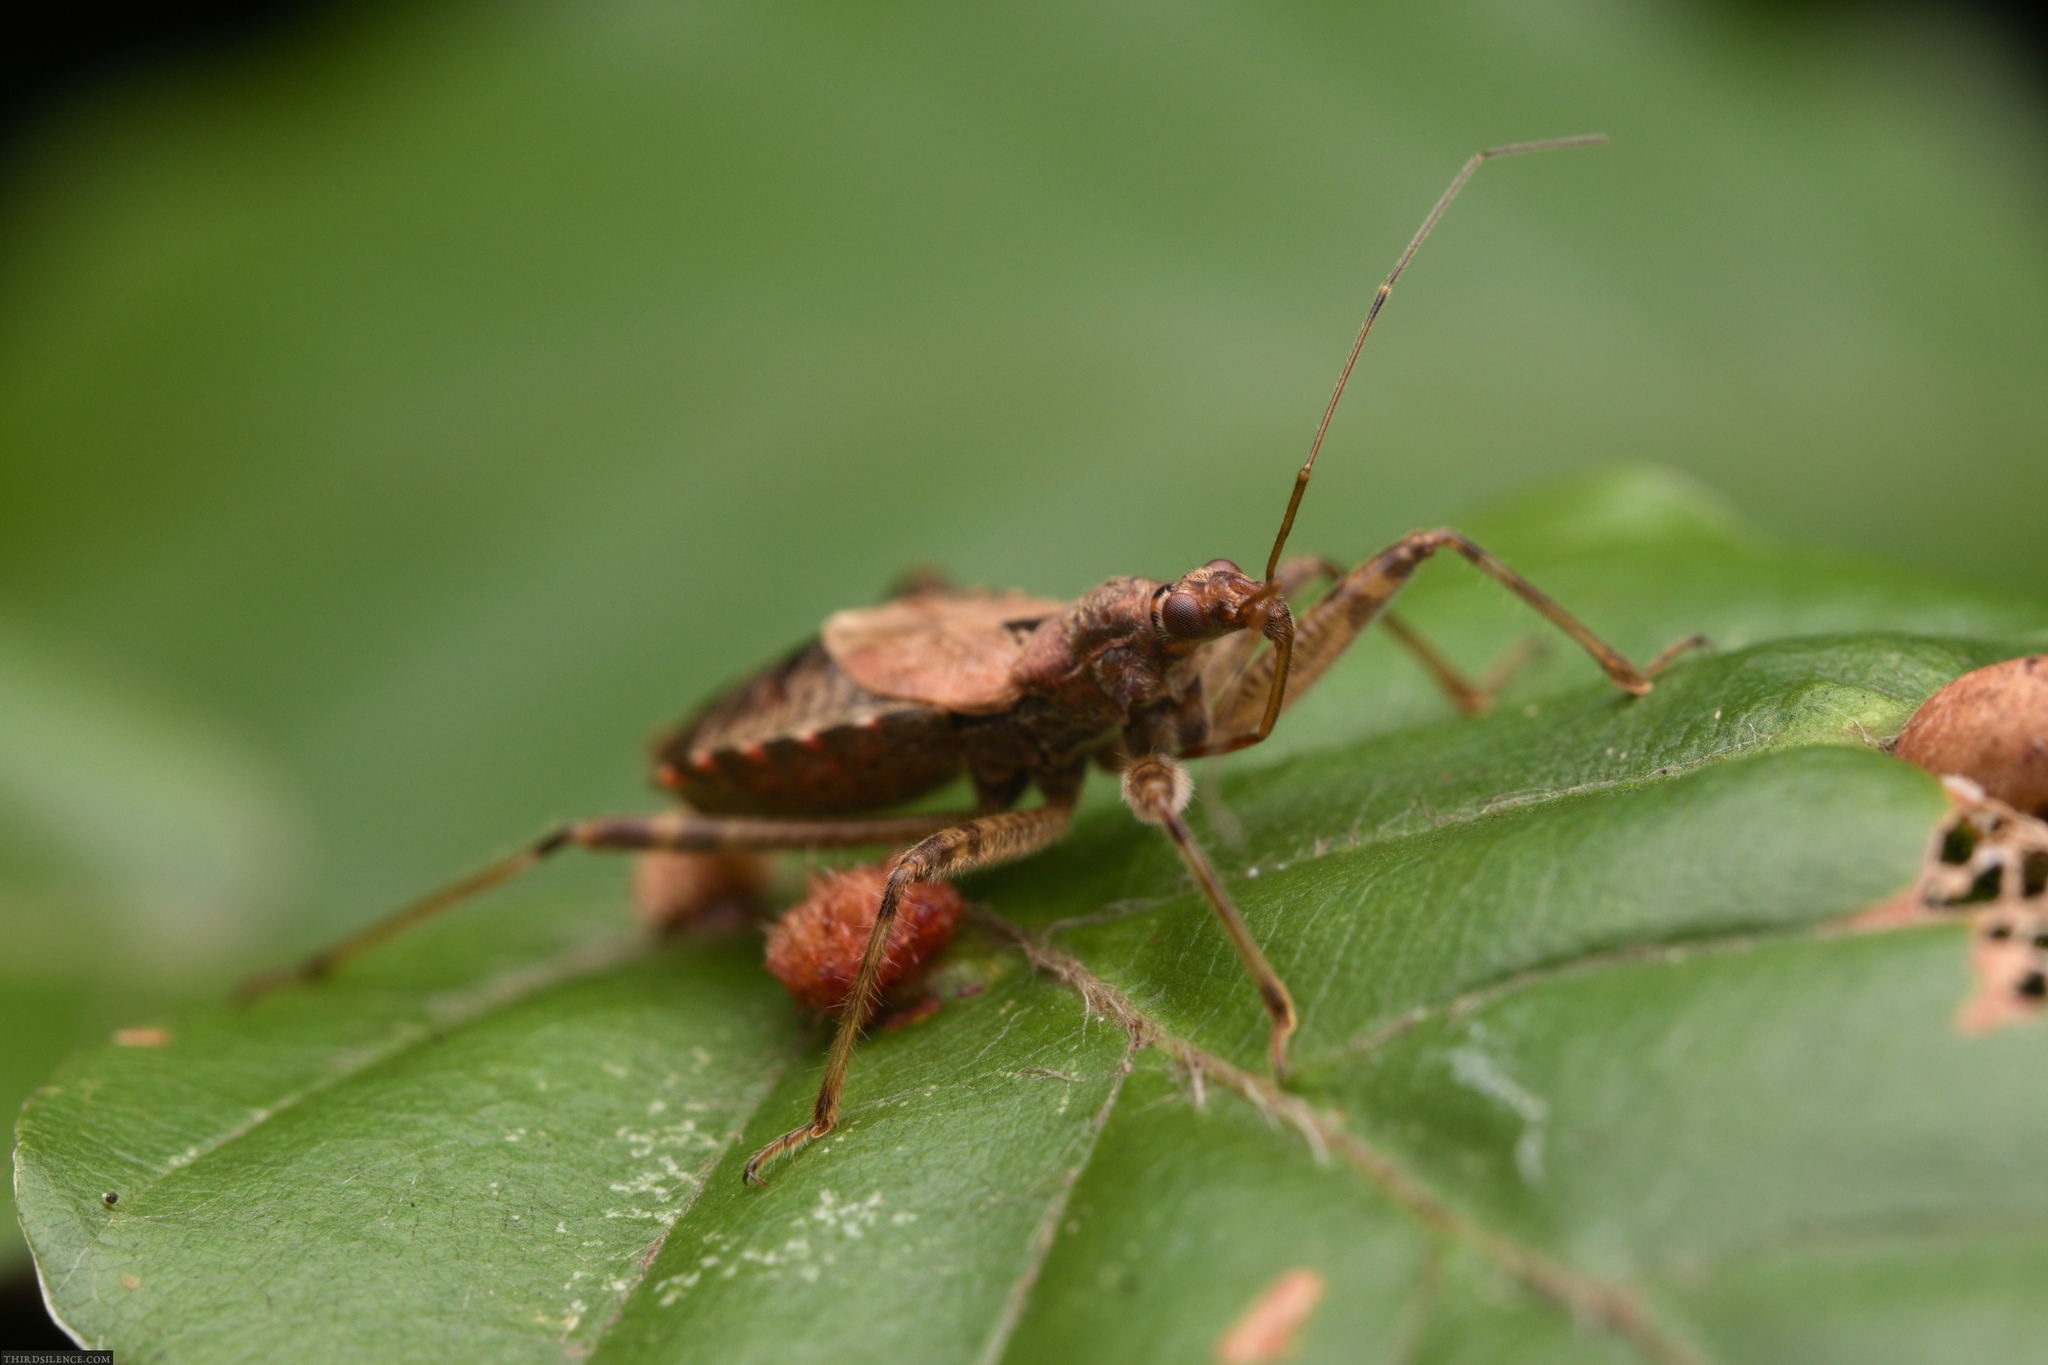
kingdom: Animalia
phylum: Arthropoda
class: Insecta
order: Hemiptera
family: Nabidae
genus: Himacerus
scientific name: Himacerus apterus
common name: Tree damsel bug
